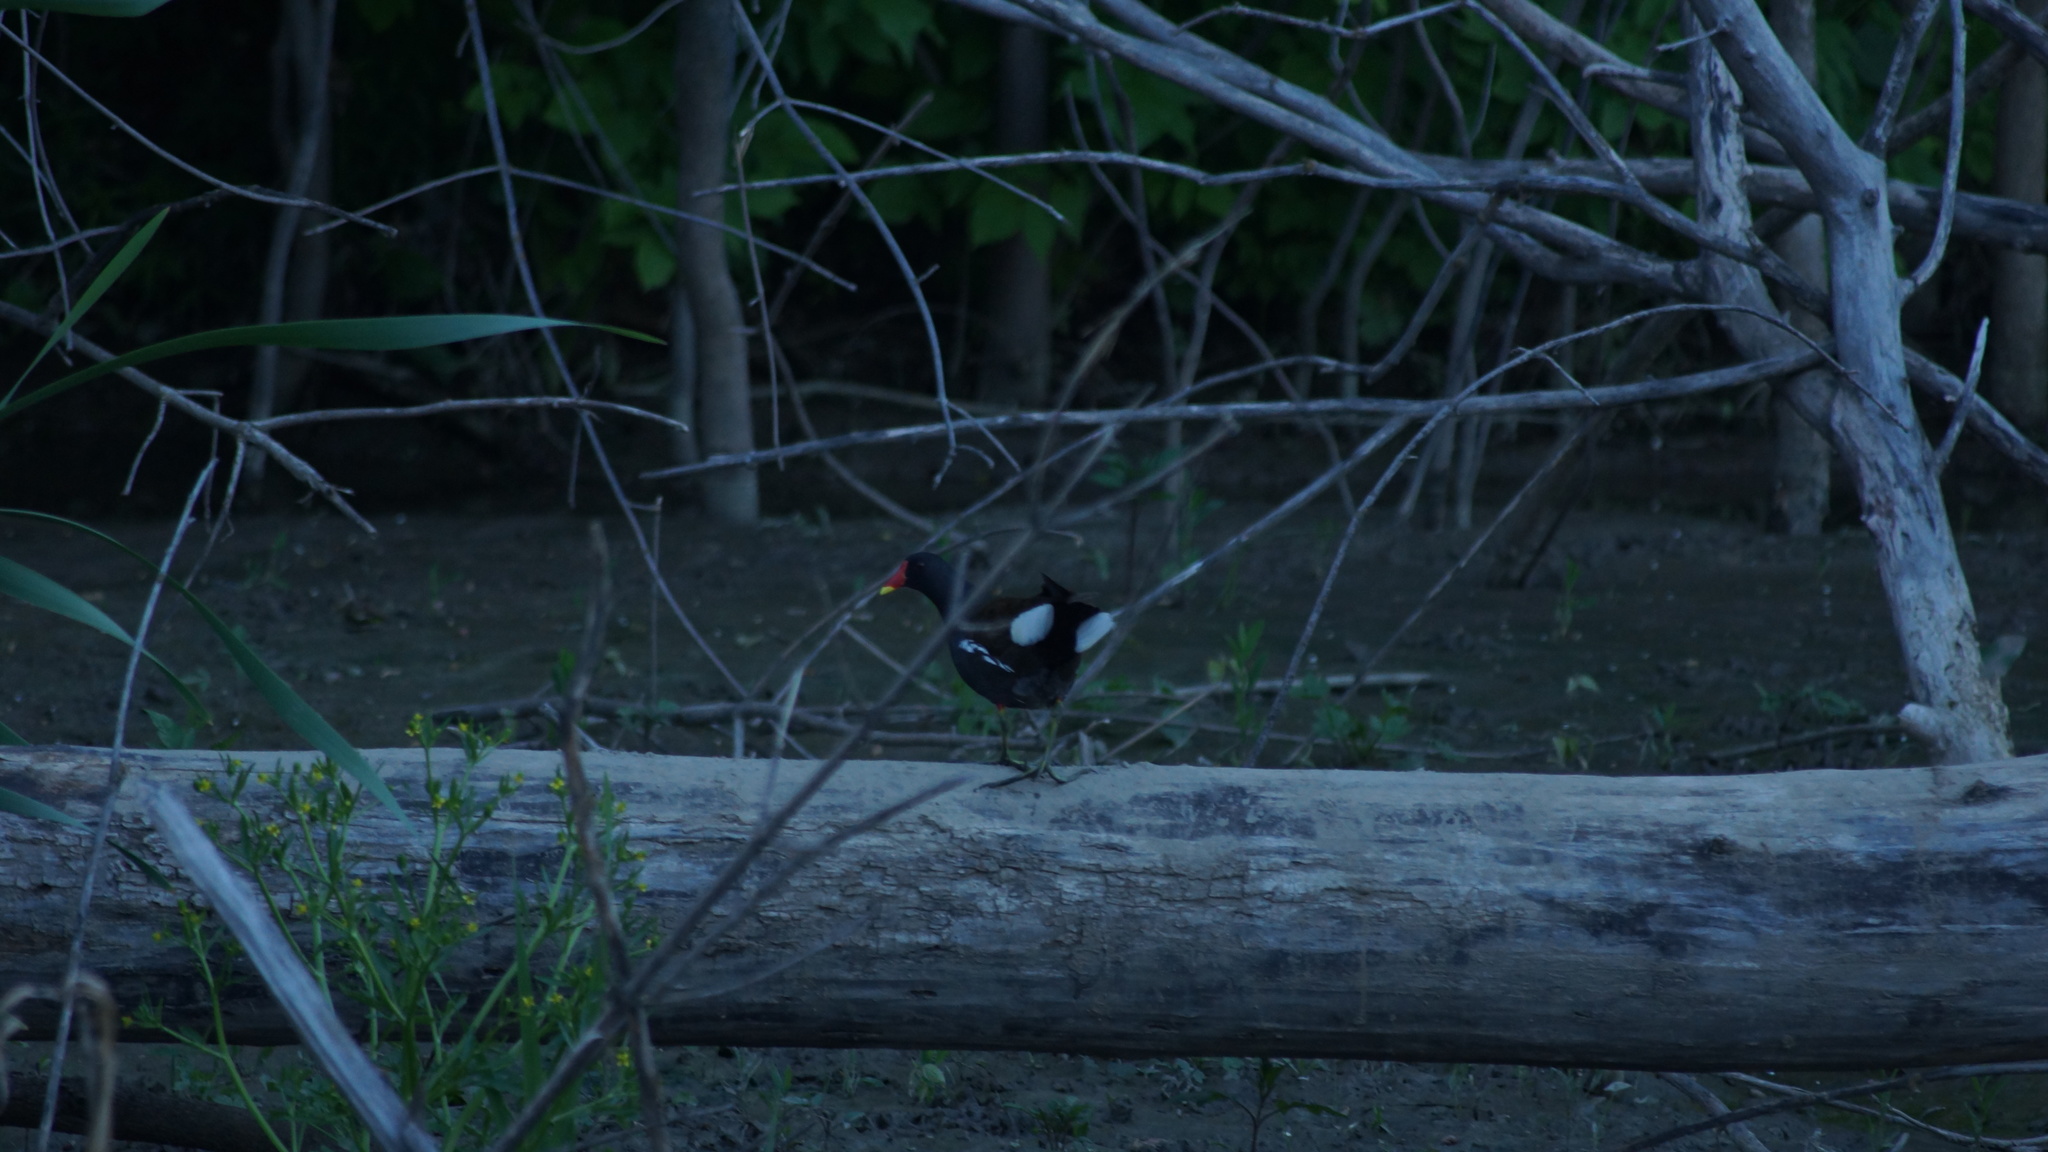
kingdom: Animalia
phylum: Chordata
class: Aves
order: Gruiformes
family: Rallidae
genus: Gallinula
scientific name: Gallinula chloropus
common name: Common moorhen
